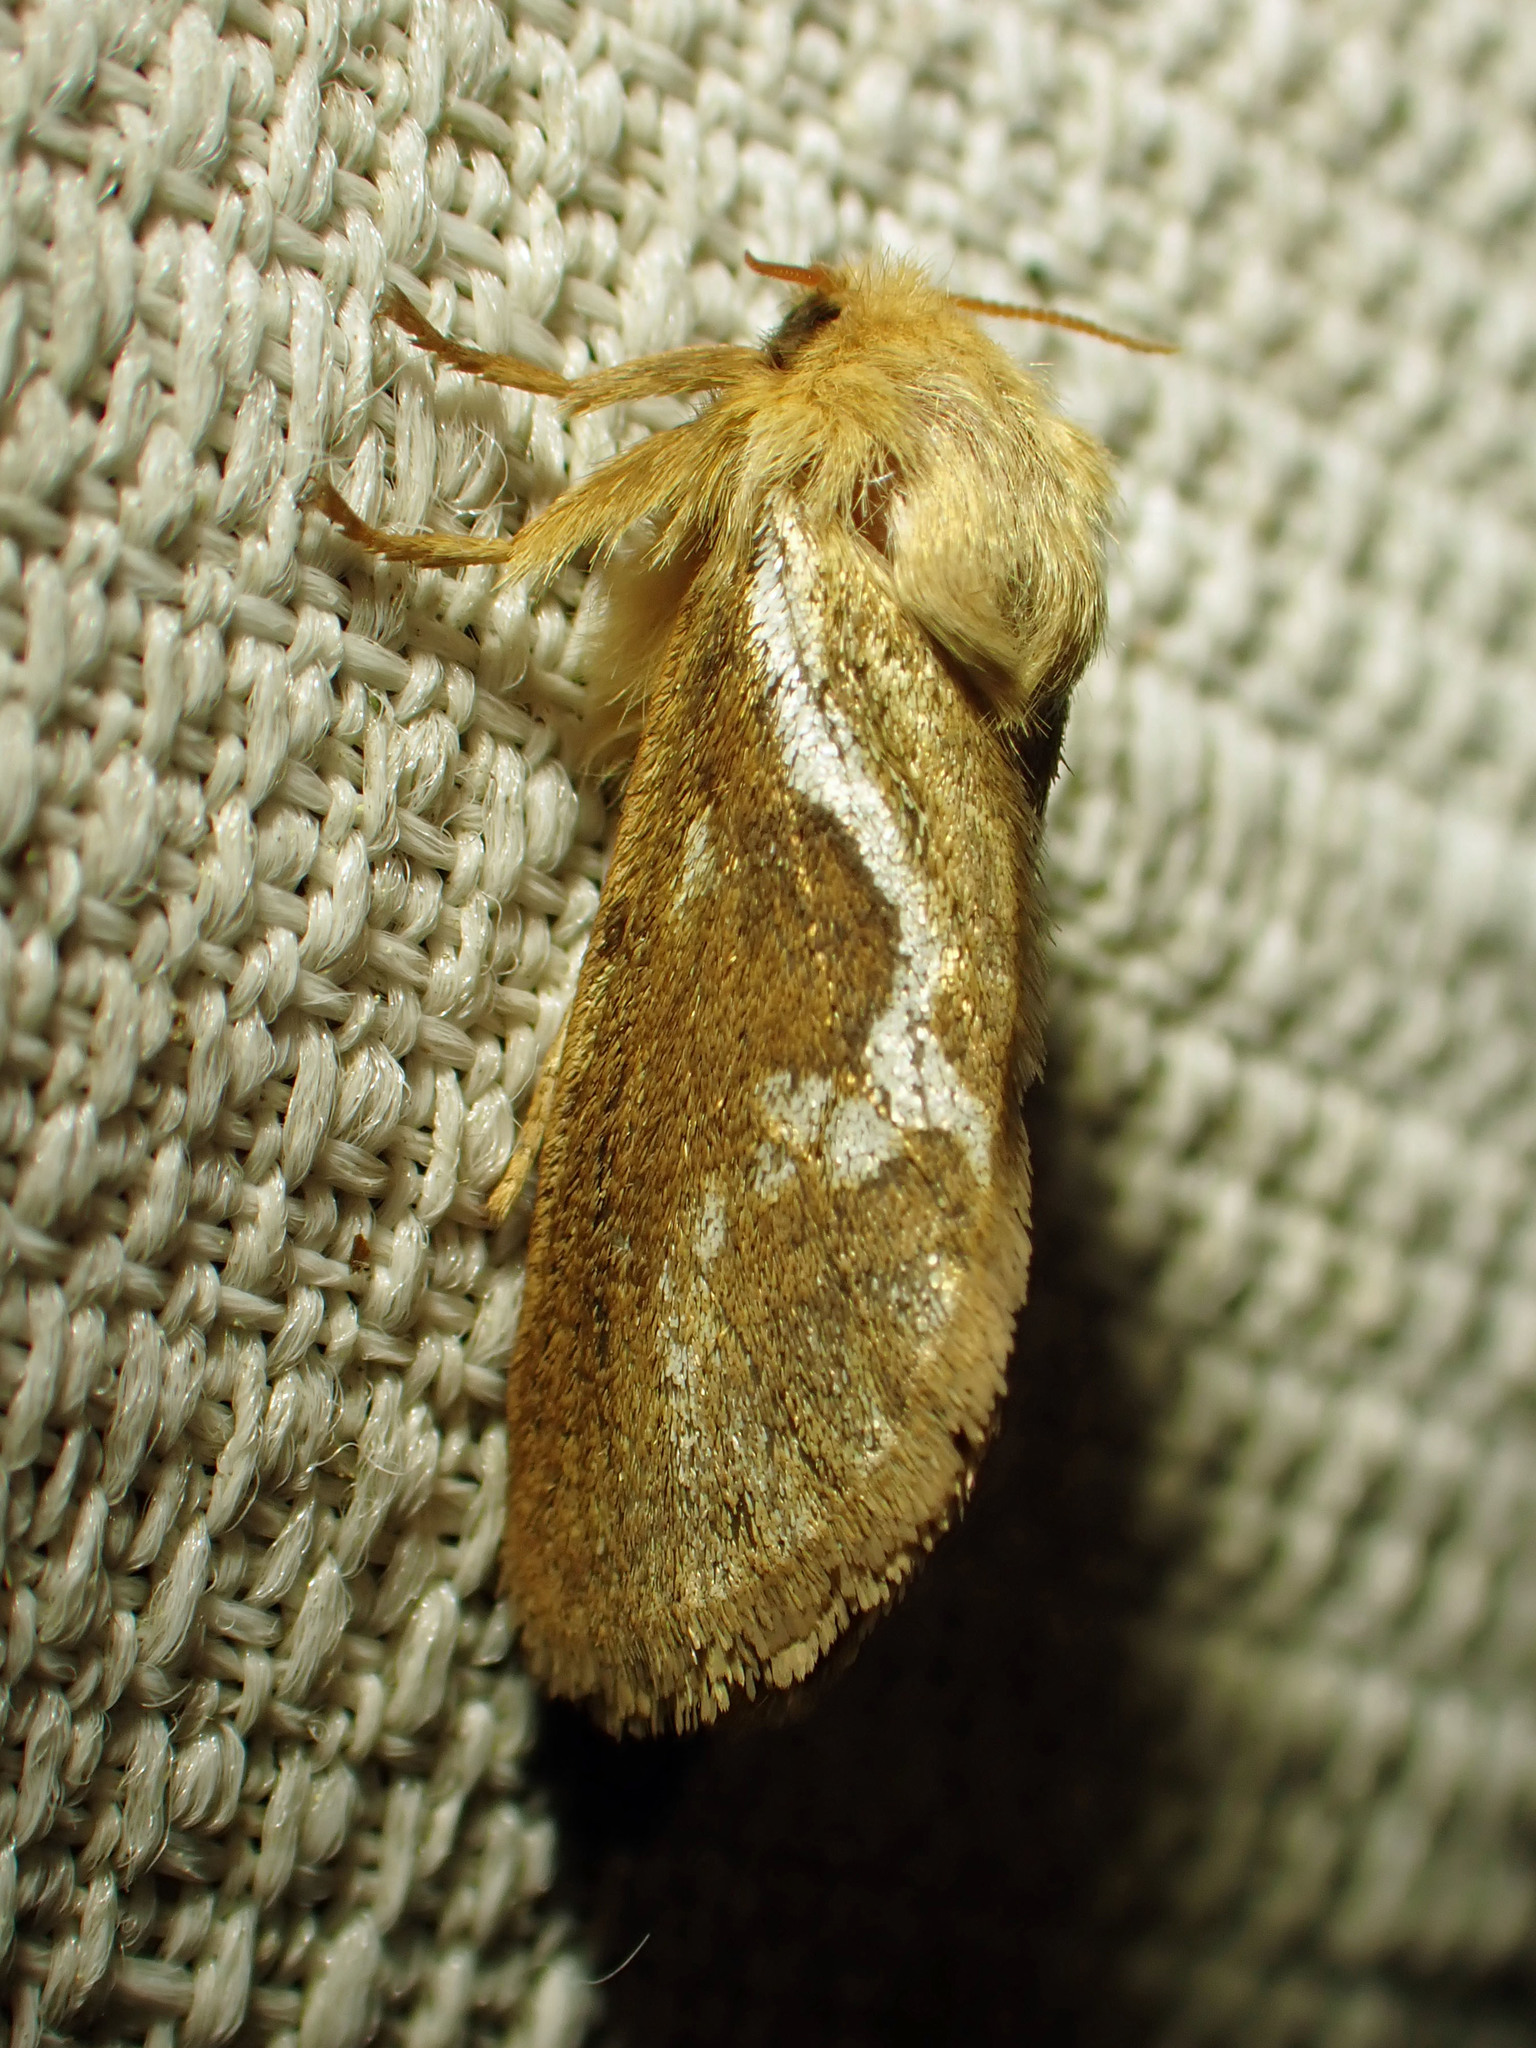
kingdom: Animalia
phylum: Arthropoda
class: Insecta
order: Lepidoptera
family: Hepialidae
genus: Korscheltellus
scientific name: Korscheltellus lupulina
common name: Common swift
